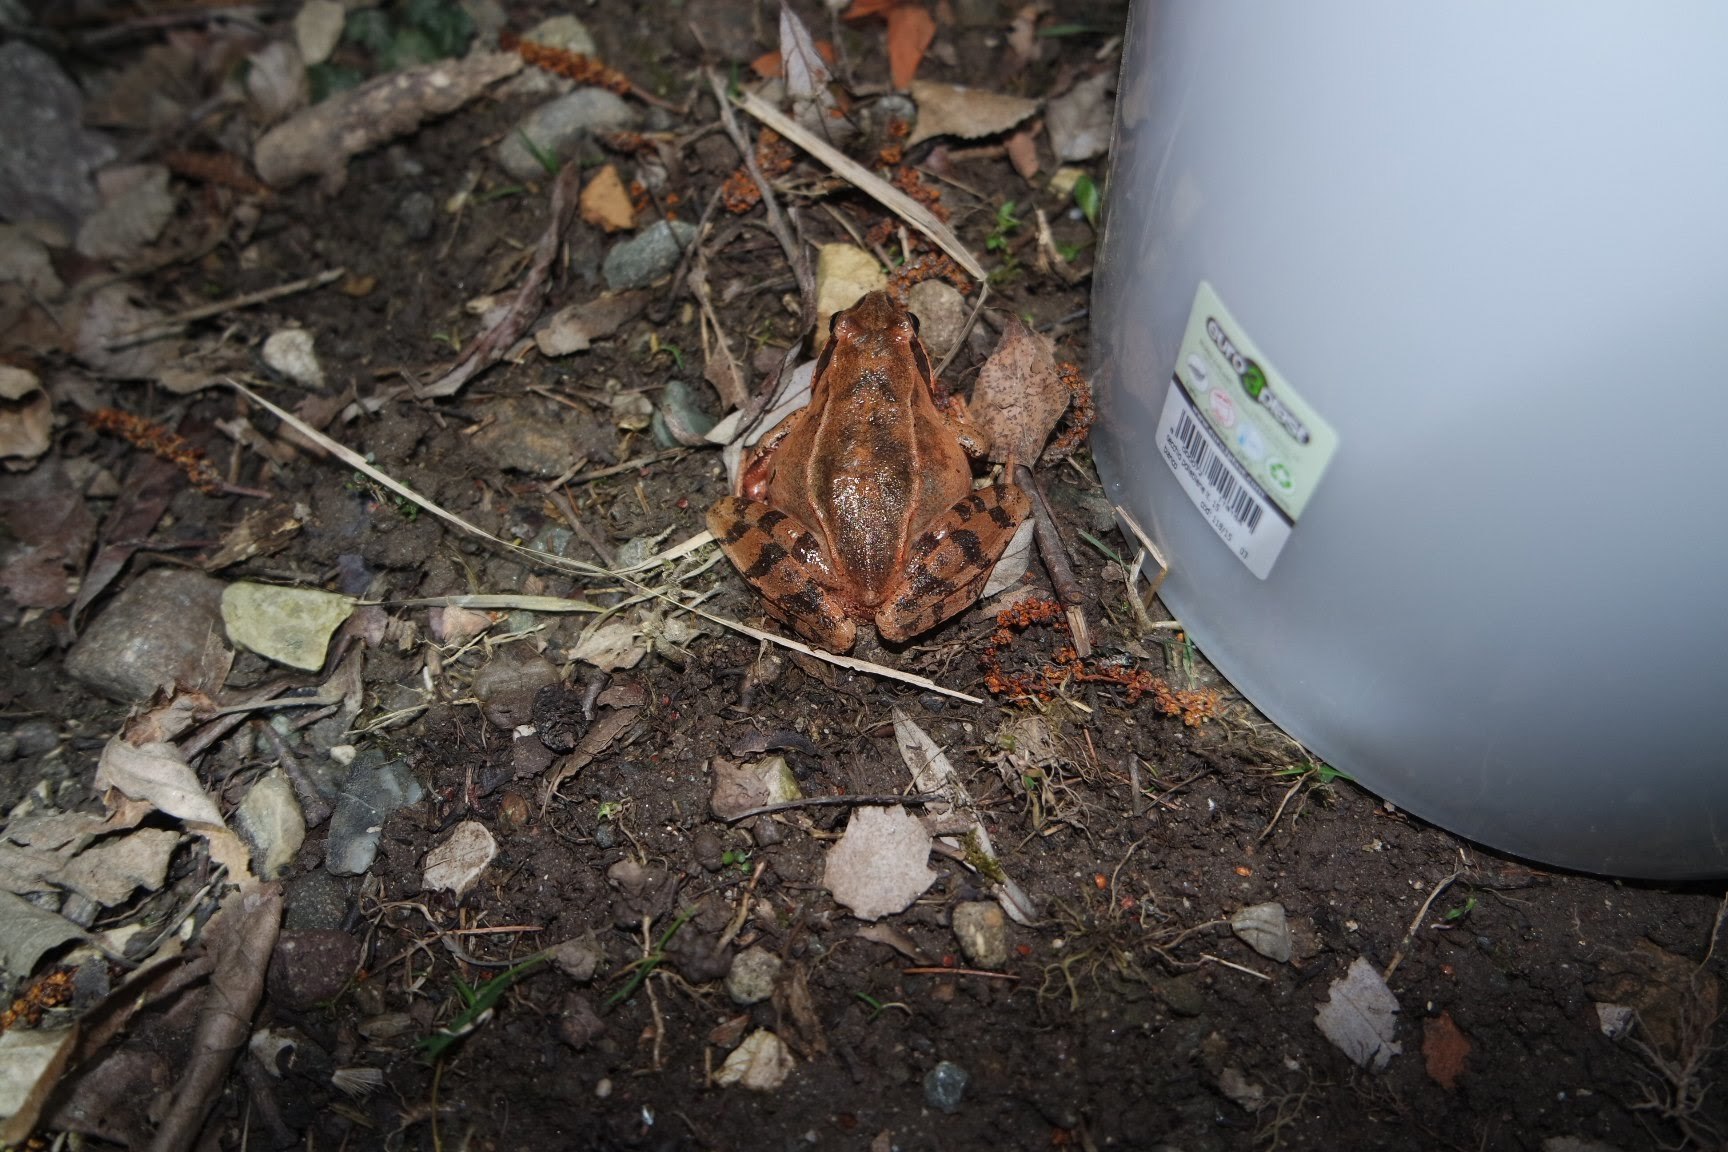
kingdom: Animalia
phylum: Chordata
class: Amphibia
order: Anura
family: Ranidae
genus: Rana
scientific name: Rana dalmatina
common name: Agile frog
